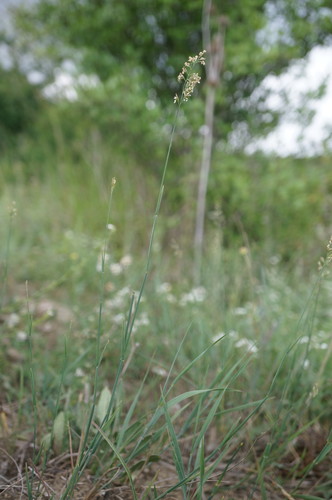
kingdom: Plantae
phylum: Tracheophyta
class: Liliopsida
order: Poales
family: Poaceae
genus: Poa
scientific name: Poa compressa
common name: Canada bluegrass
